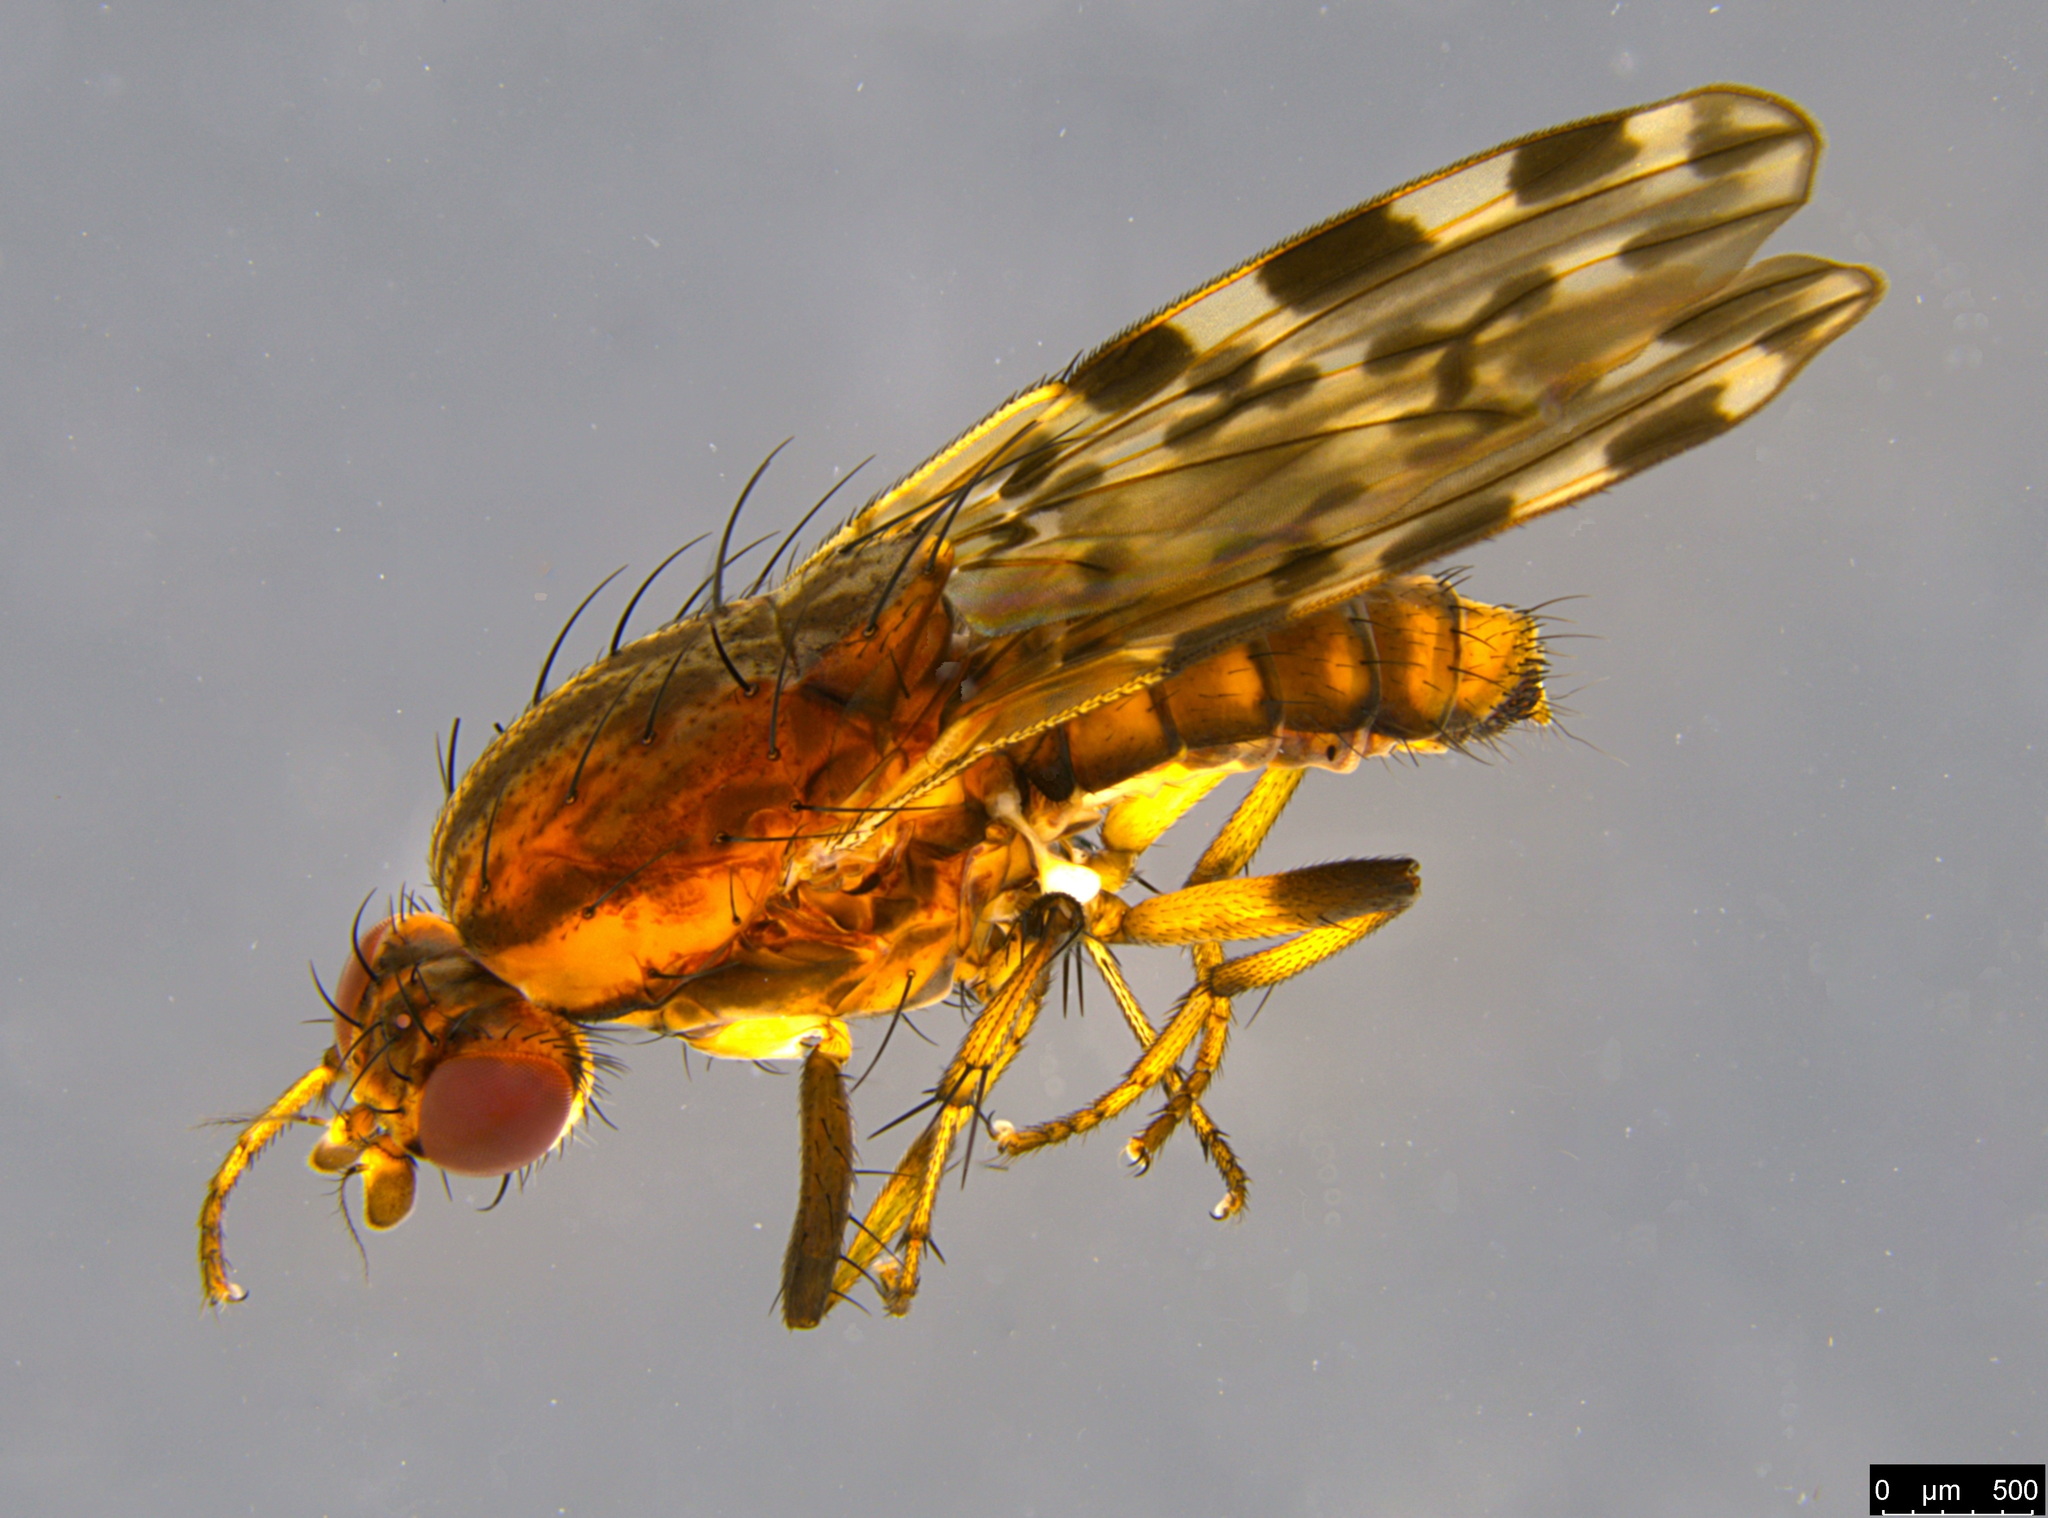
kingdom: Animalia
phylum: Arthropoda
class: Insecta
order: Diptera
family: Heleomyzidae
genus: Diplogeomyza
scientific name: Diplogeomyza maculipennis
